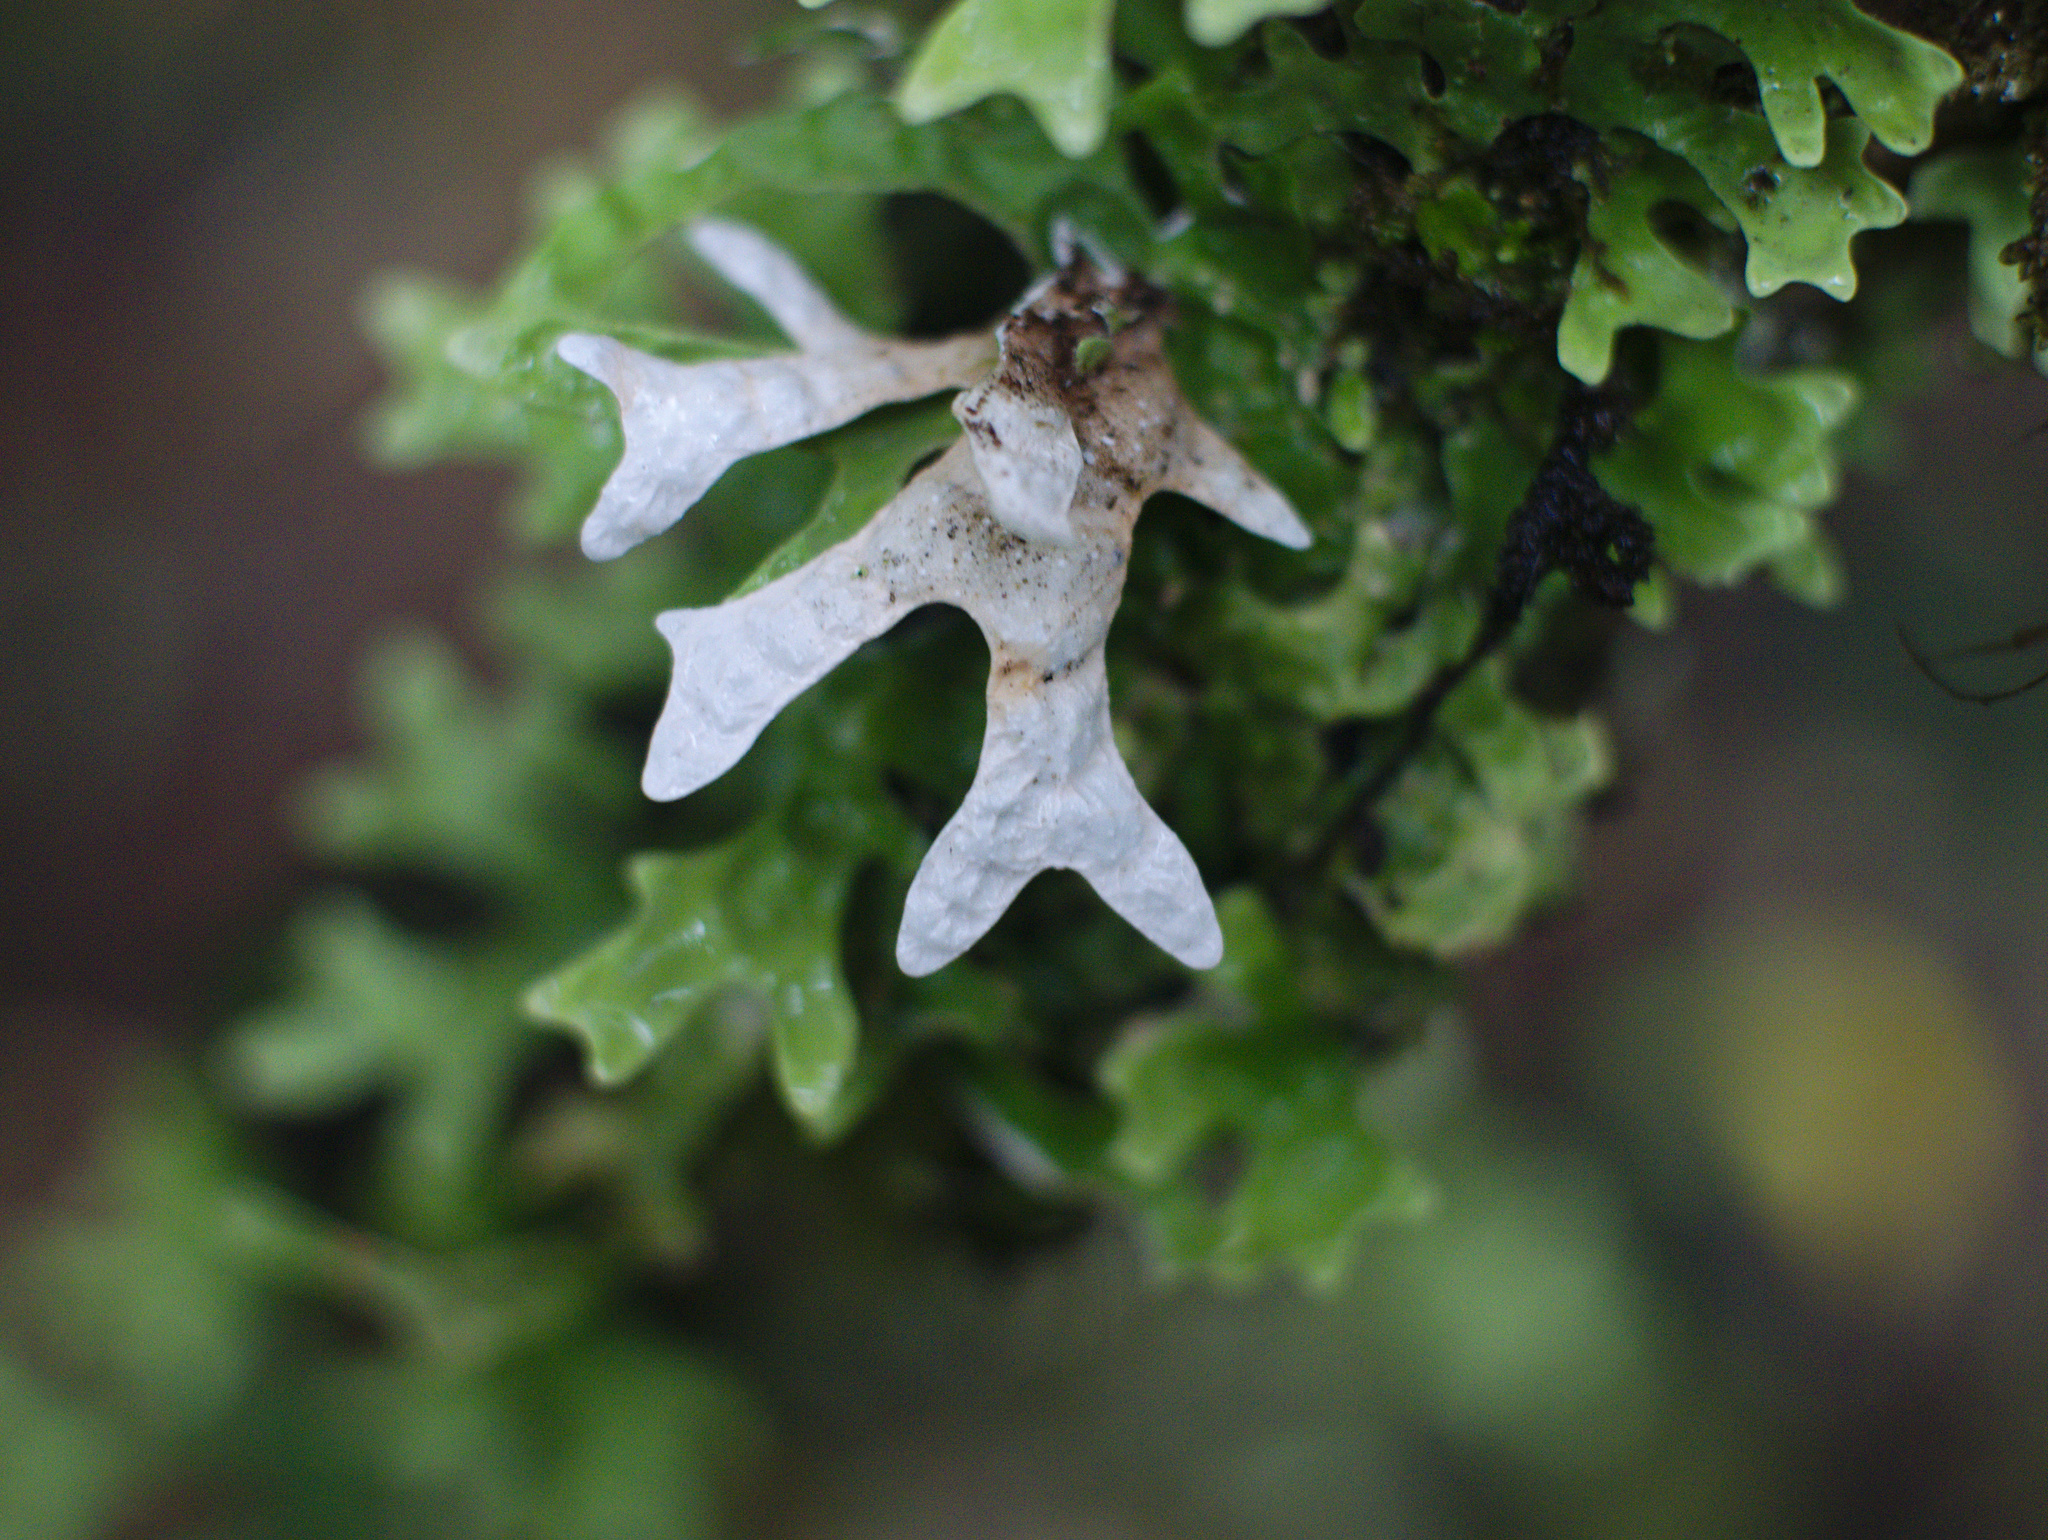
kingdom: Fungi
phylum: Ascomycota
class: Lecanoromycetes
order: Peltigerales
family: Lobariaceae
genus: Pseudocyphellaria
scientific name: Pseudocyphellaria rufovirescens
